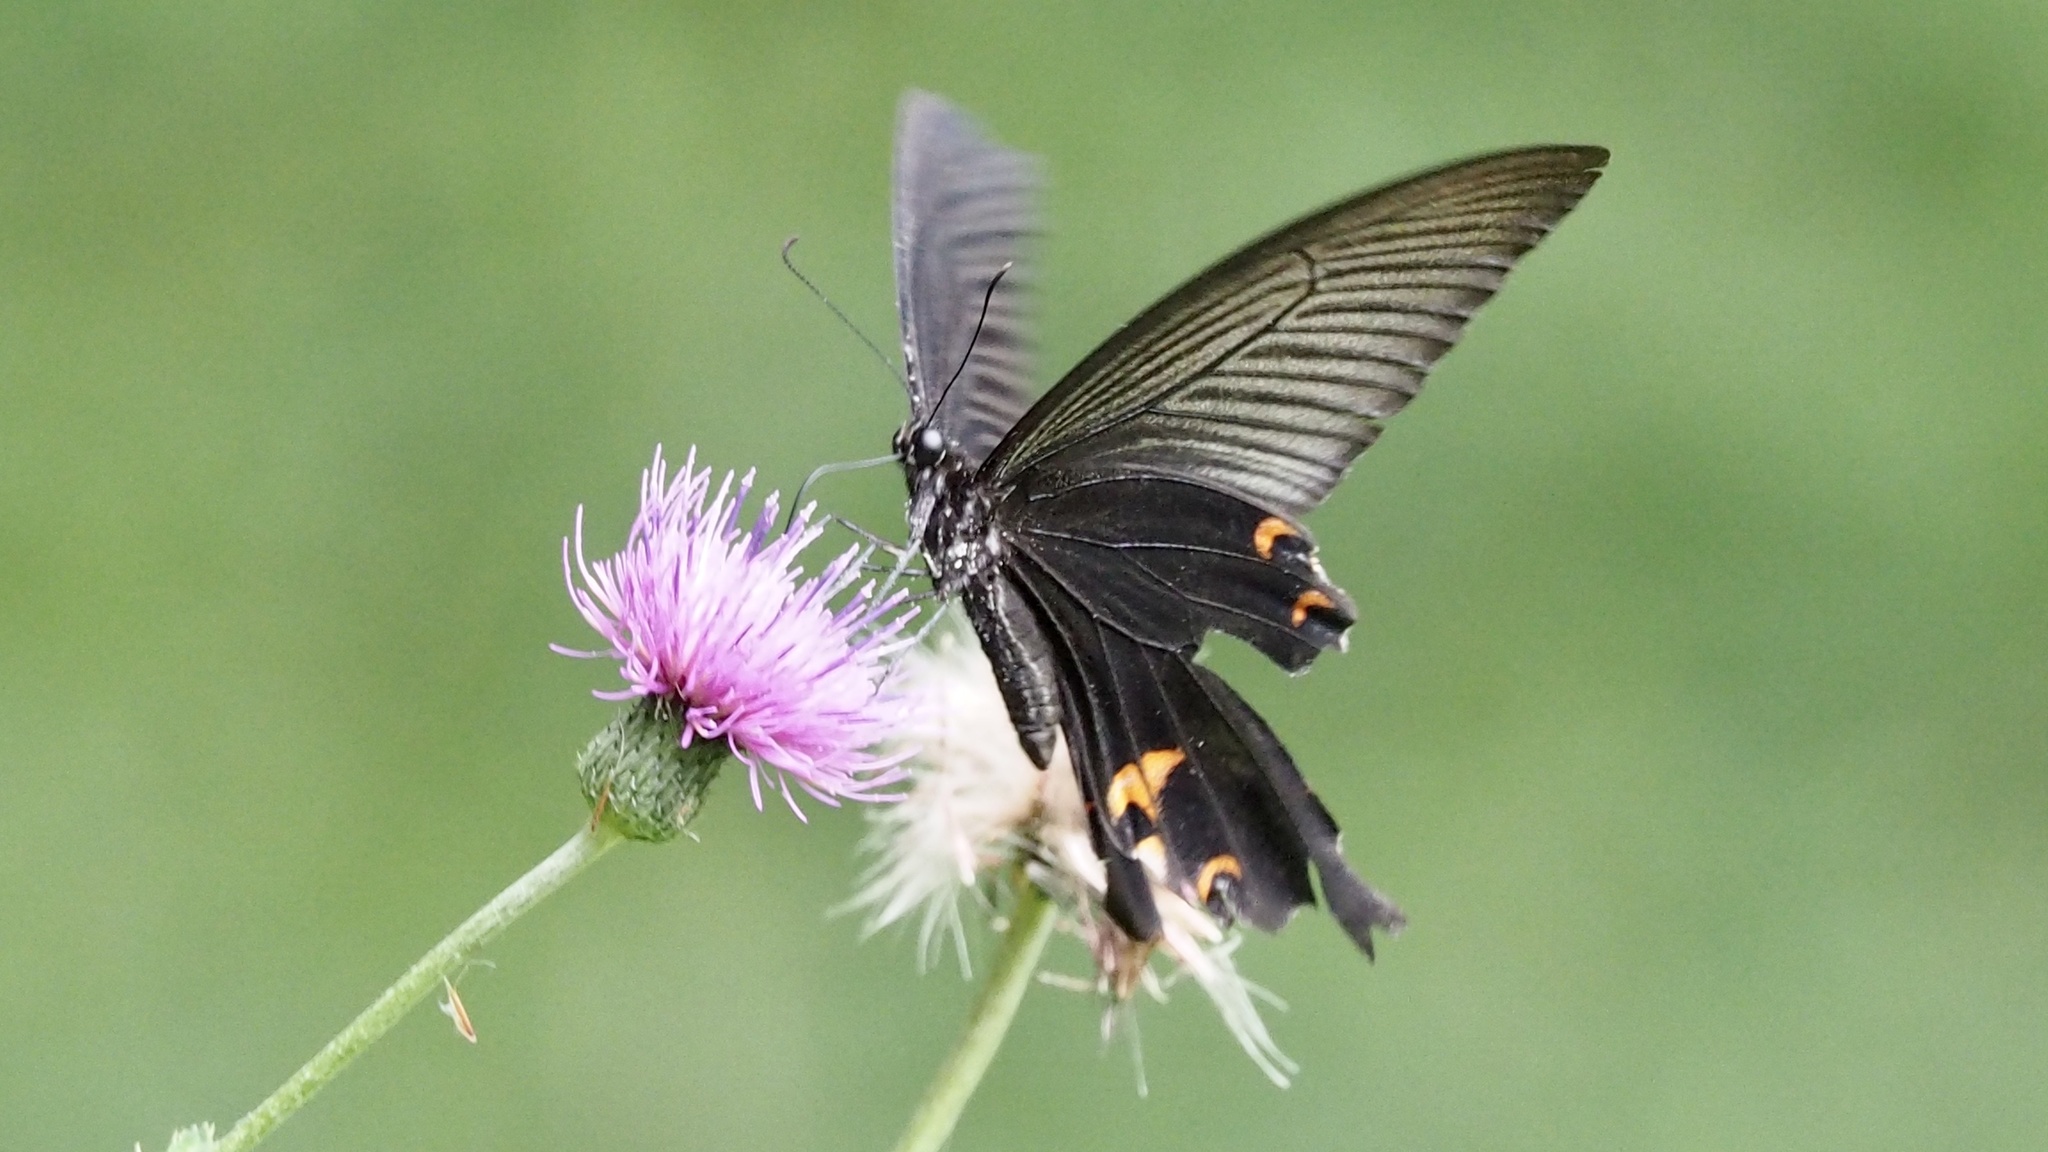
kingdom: Animalia
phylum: Arthropoda
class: Insecta
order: Lepidoptera
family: Papilionidae
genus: Papilio
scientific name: Papilio demetrius
